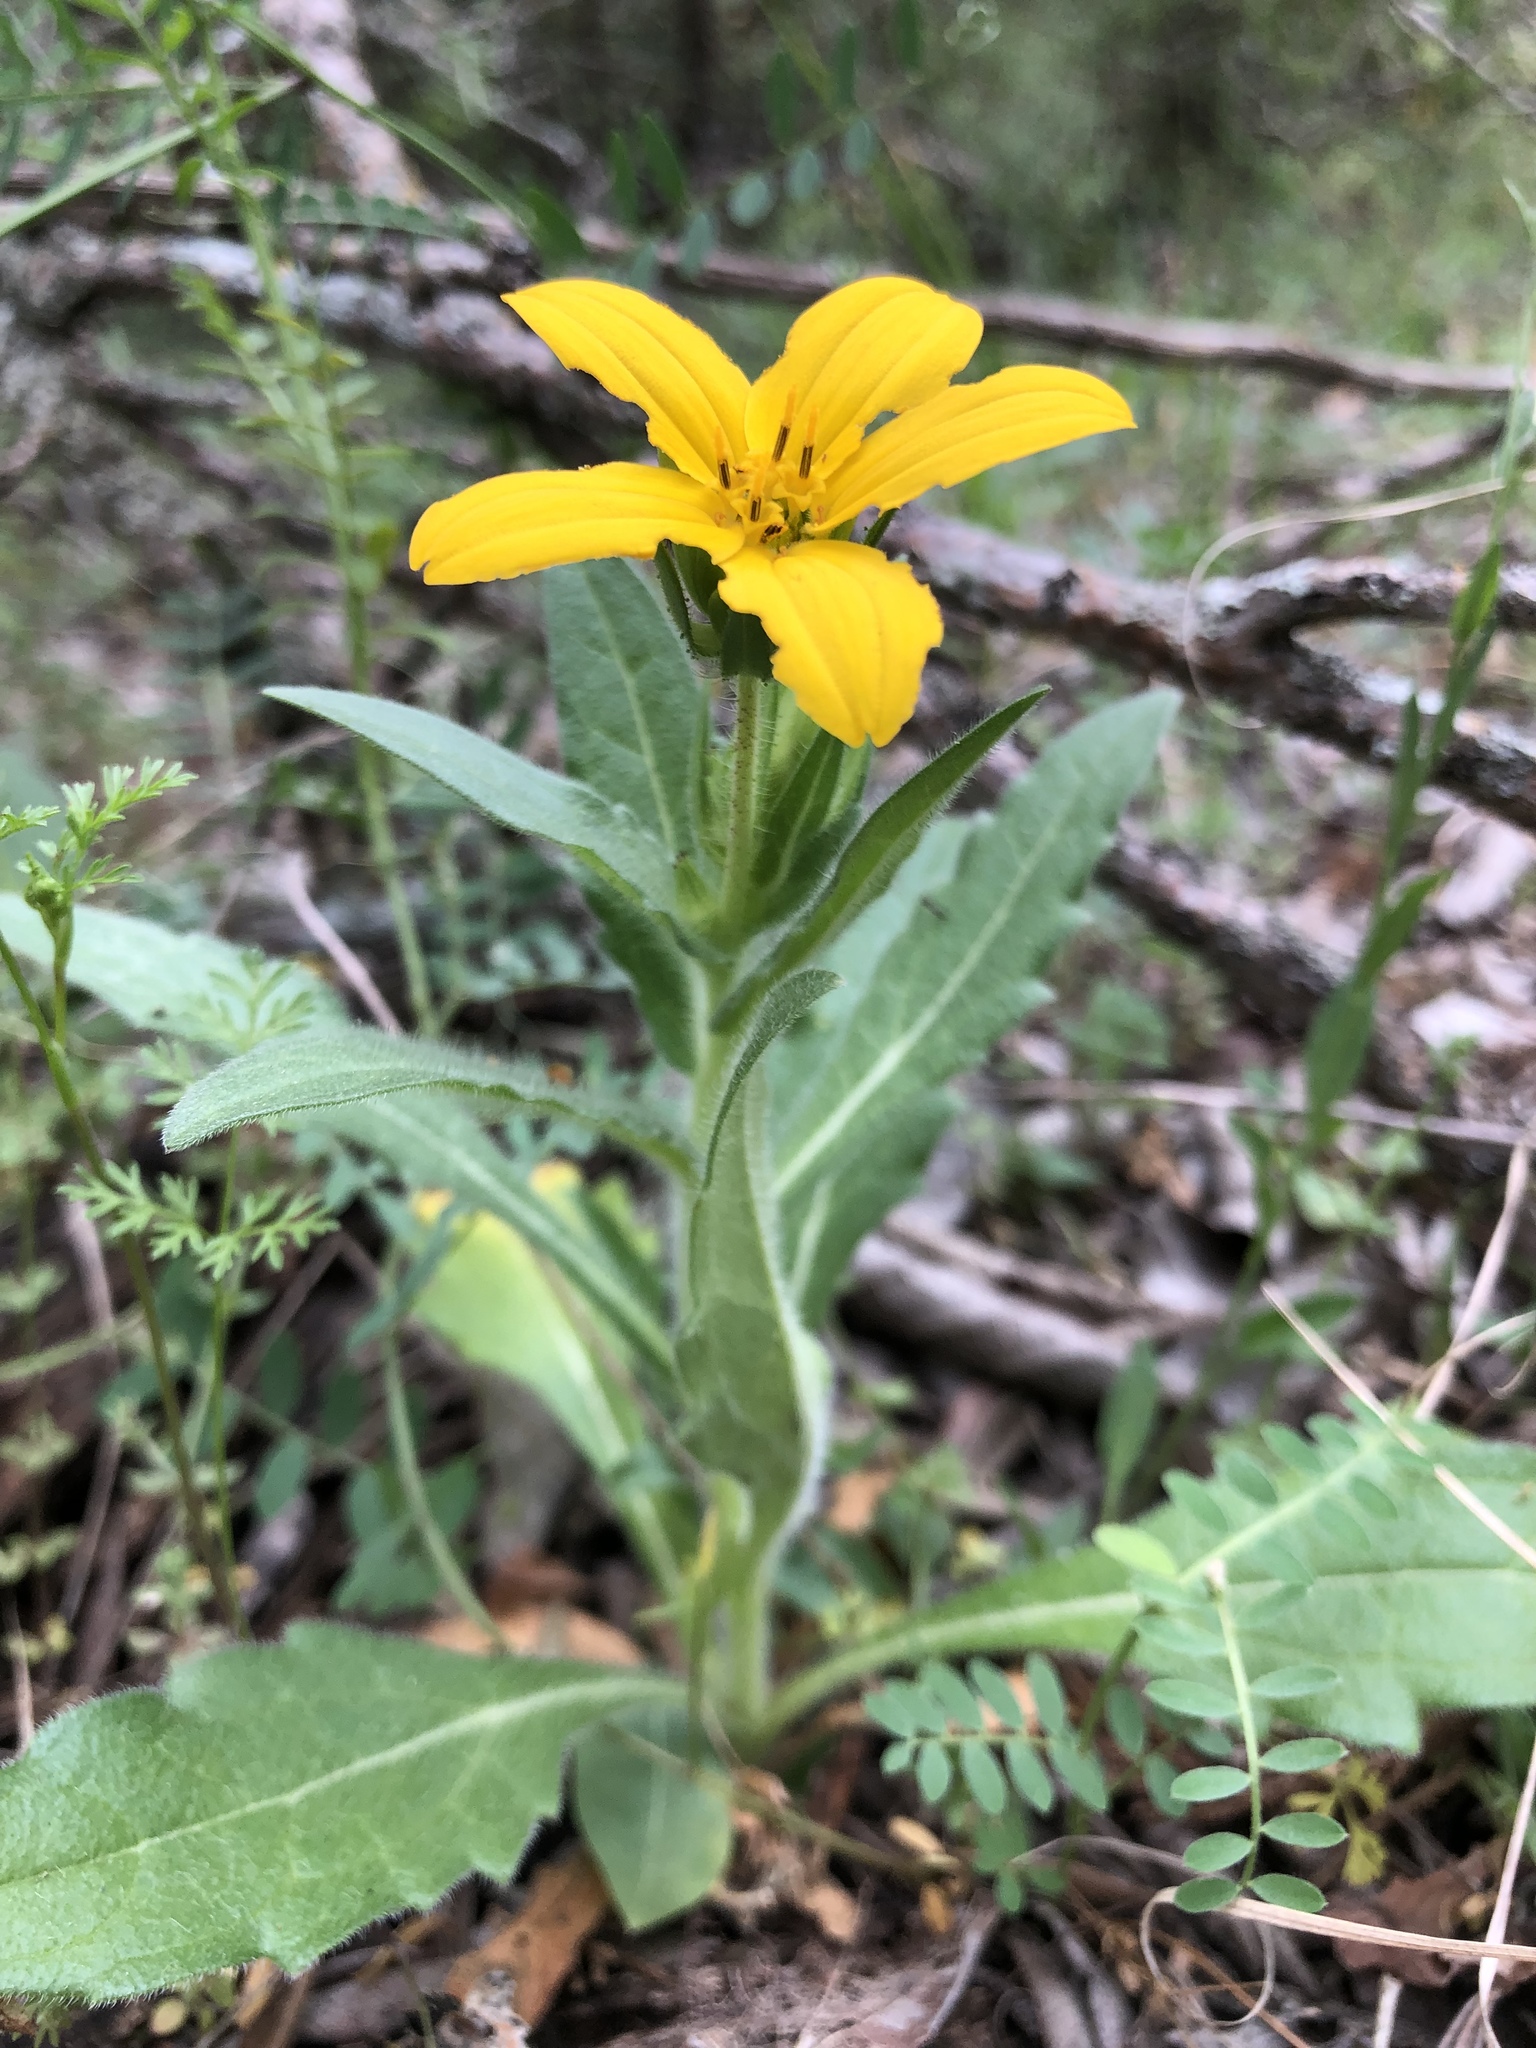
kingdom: Plantae
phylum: Tracheophyta
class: Magnoliopsida
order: Asterales
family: Asteraceae
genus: Lindheimera
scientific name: Lindheimera texana
